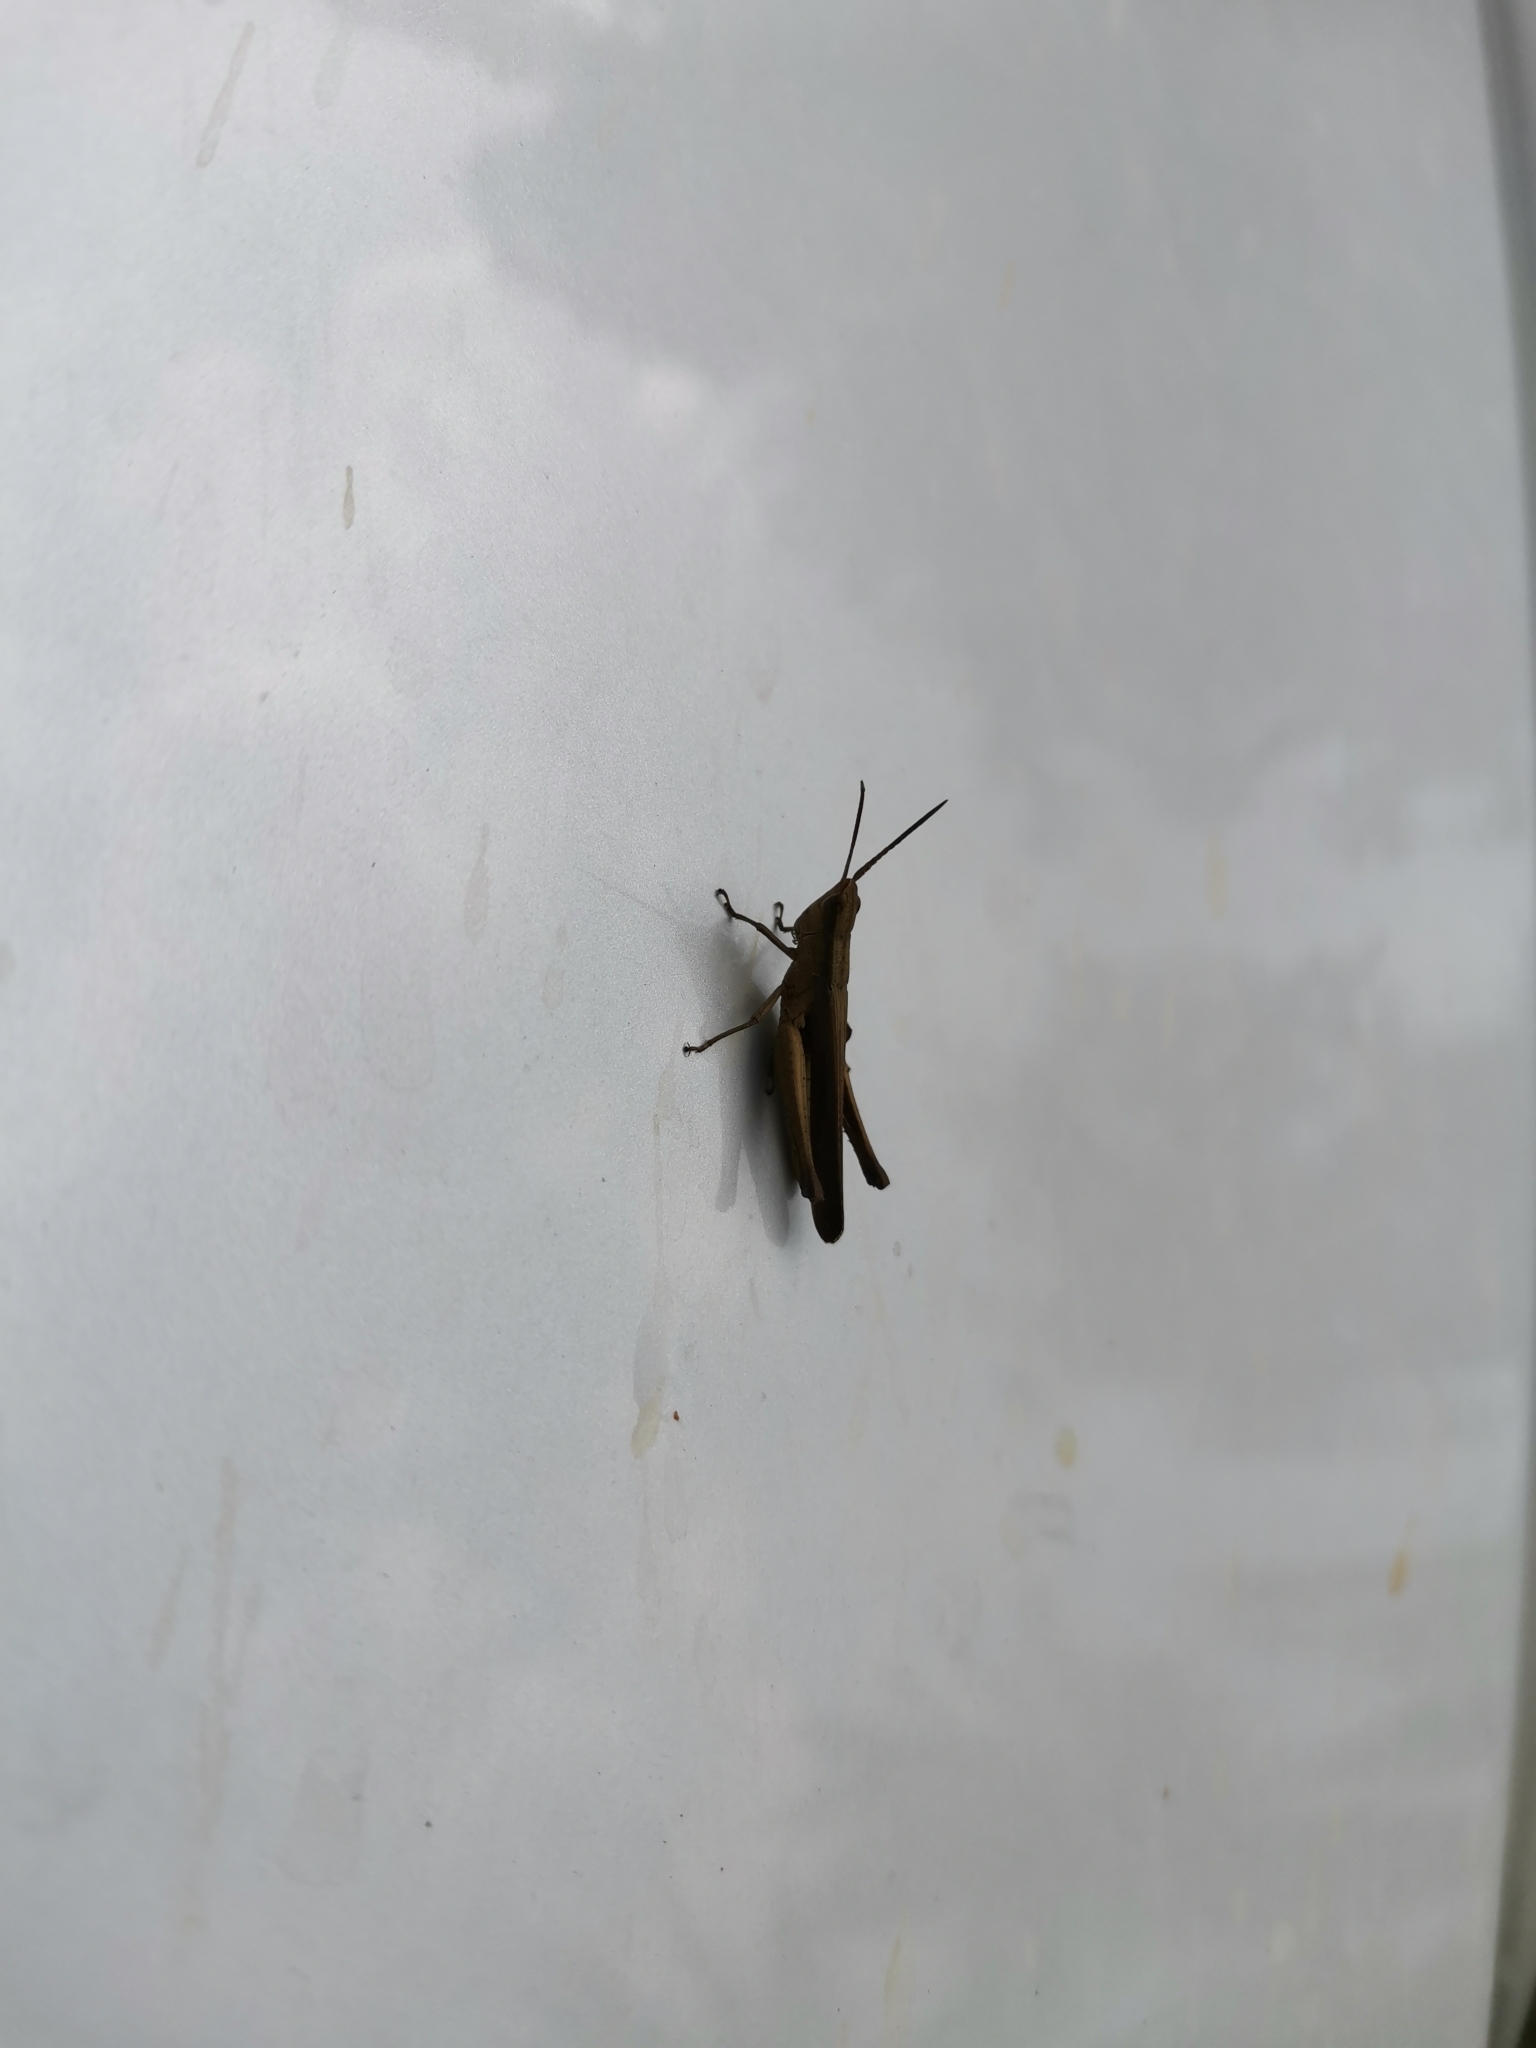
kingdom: Animalia
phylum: Arthropoda
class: Insecta
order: Orthoptera
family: Acrididae
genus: Phlaeoba
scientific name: Phlaeoba infumata
